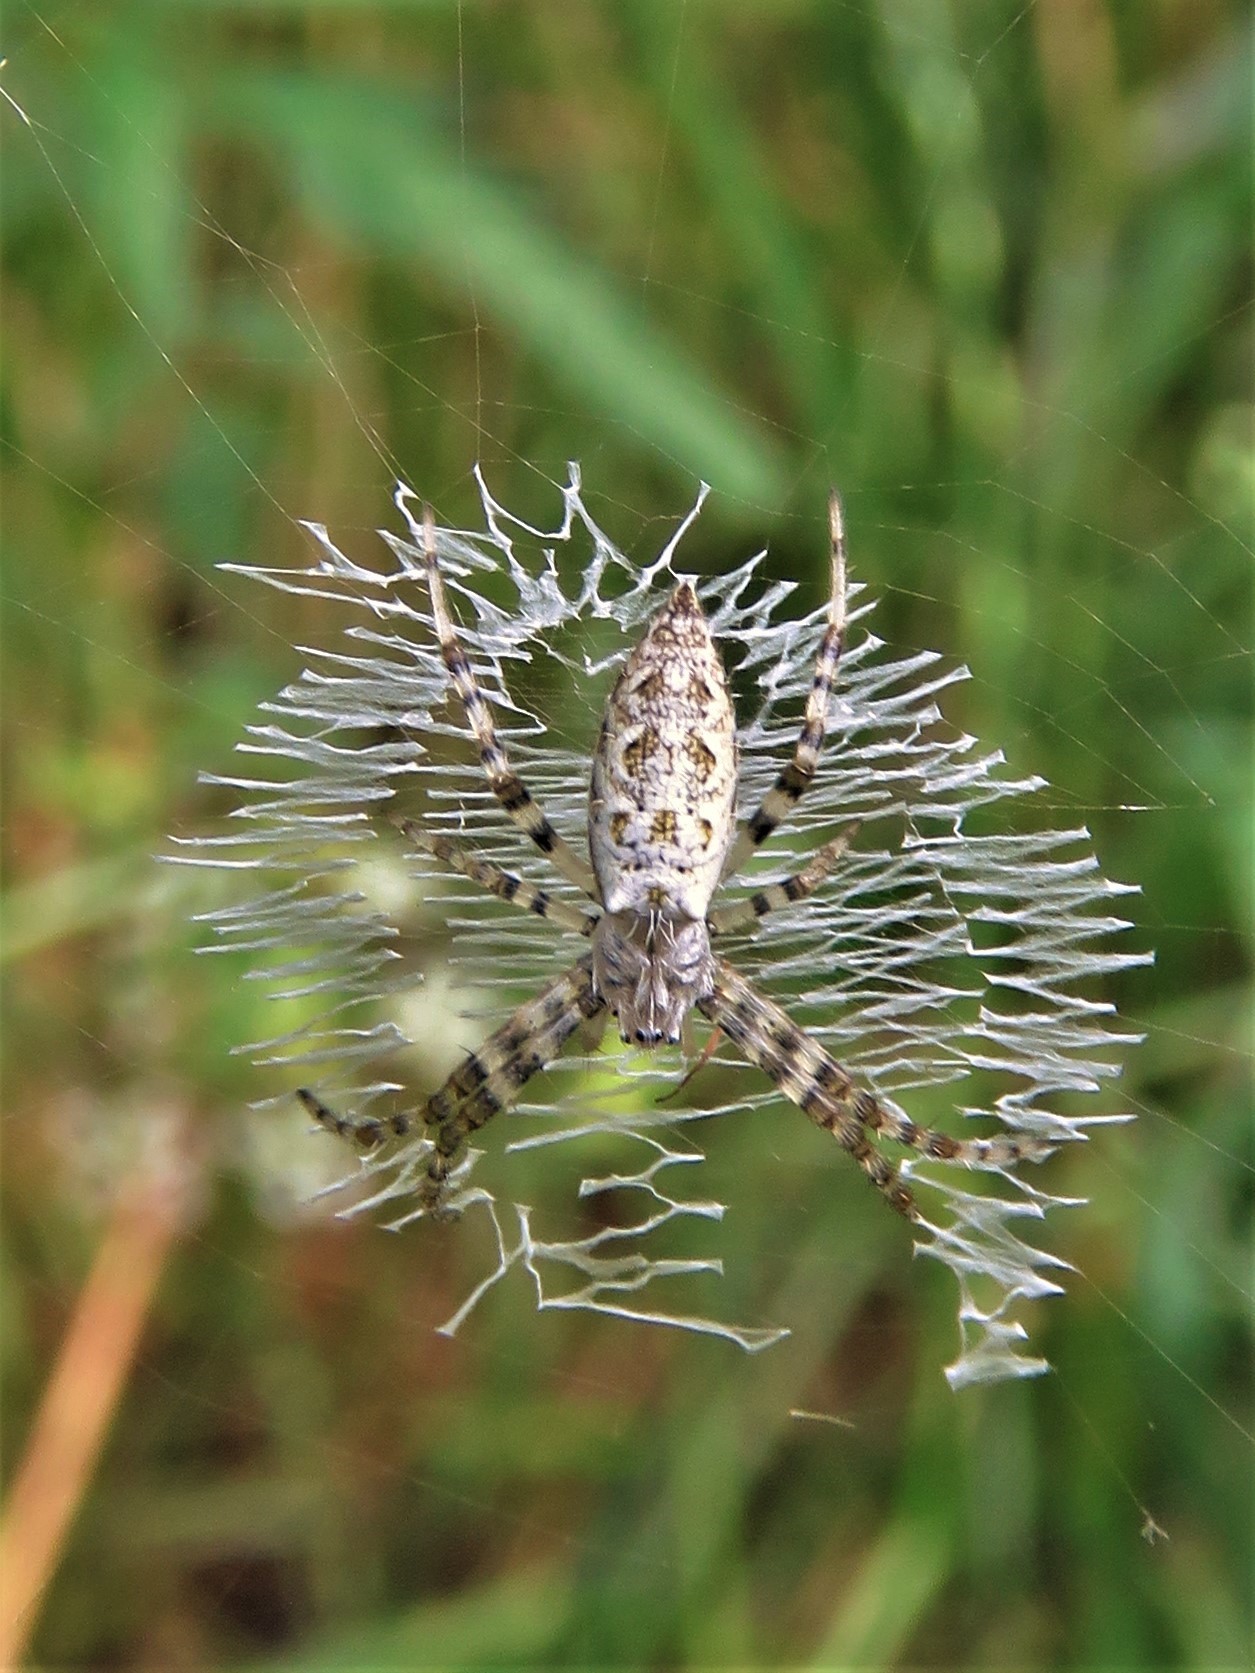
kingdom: Animalia
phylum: Arthropoda
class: Arachnida
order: Araneae
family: Araneidae
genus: Argiope
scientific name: Argiope aurantia
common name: Orb weavers
